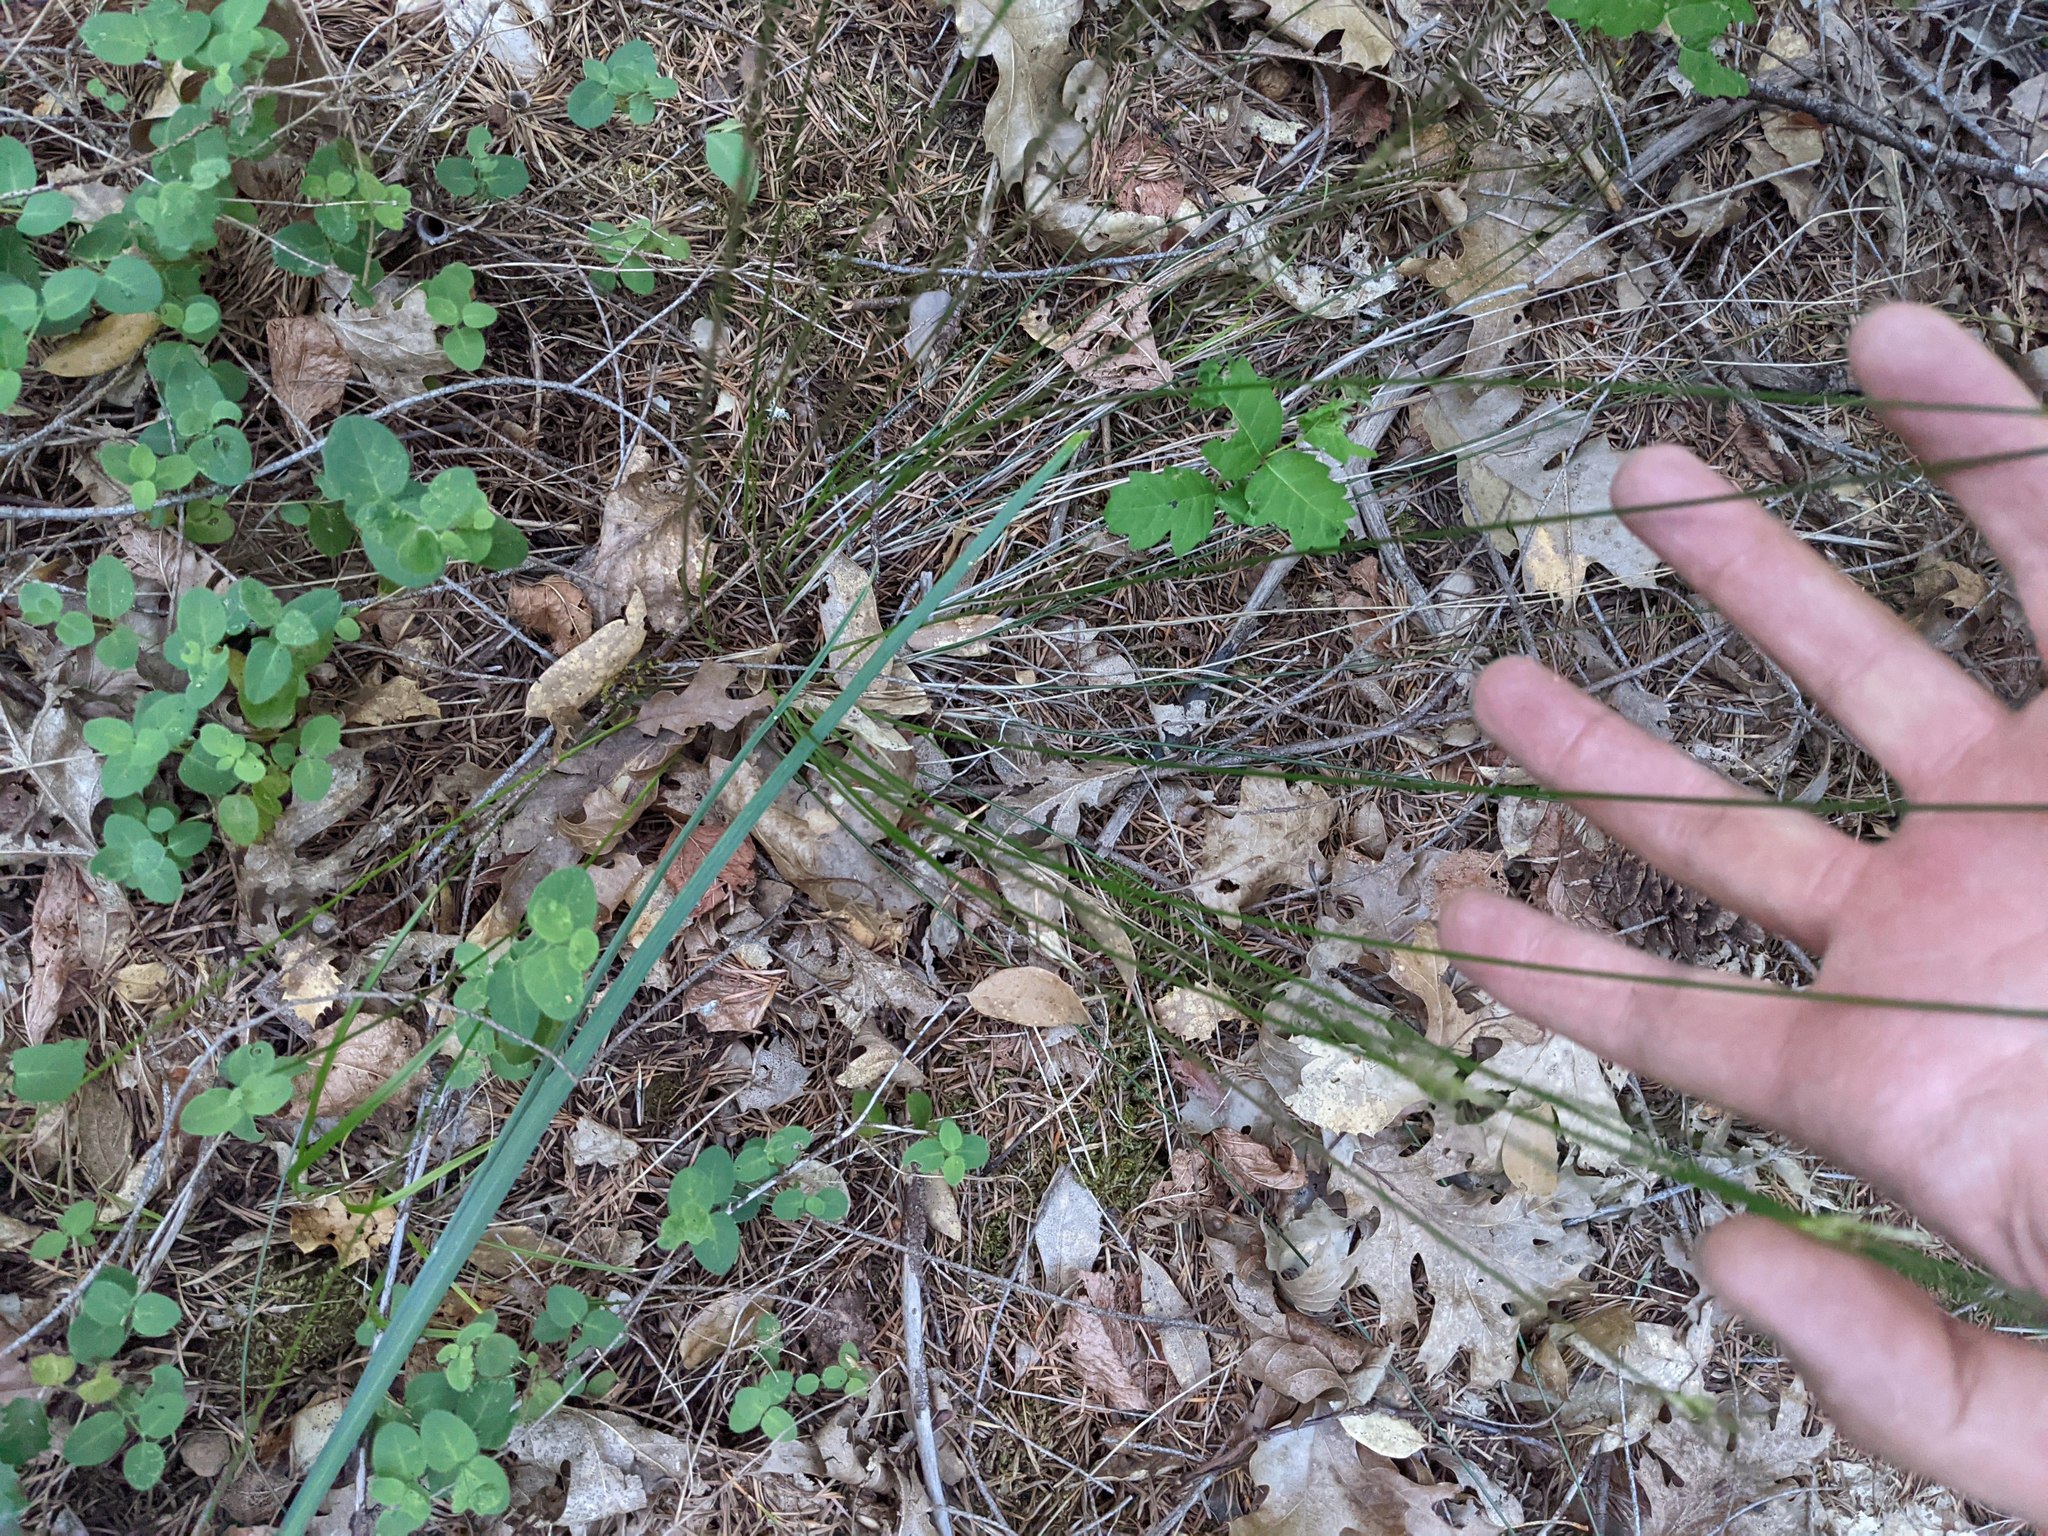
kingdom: Plantae
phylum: Tracheophyta
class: Liliopsida
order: Poales
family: Cyperaceae
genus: Carex
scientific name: Carex multicaulis
